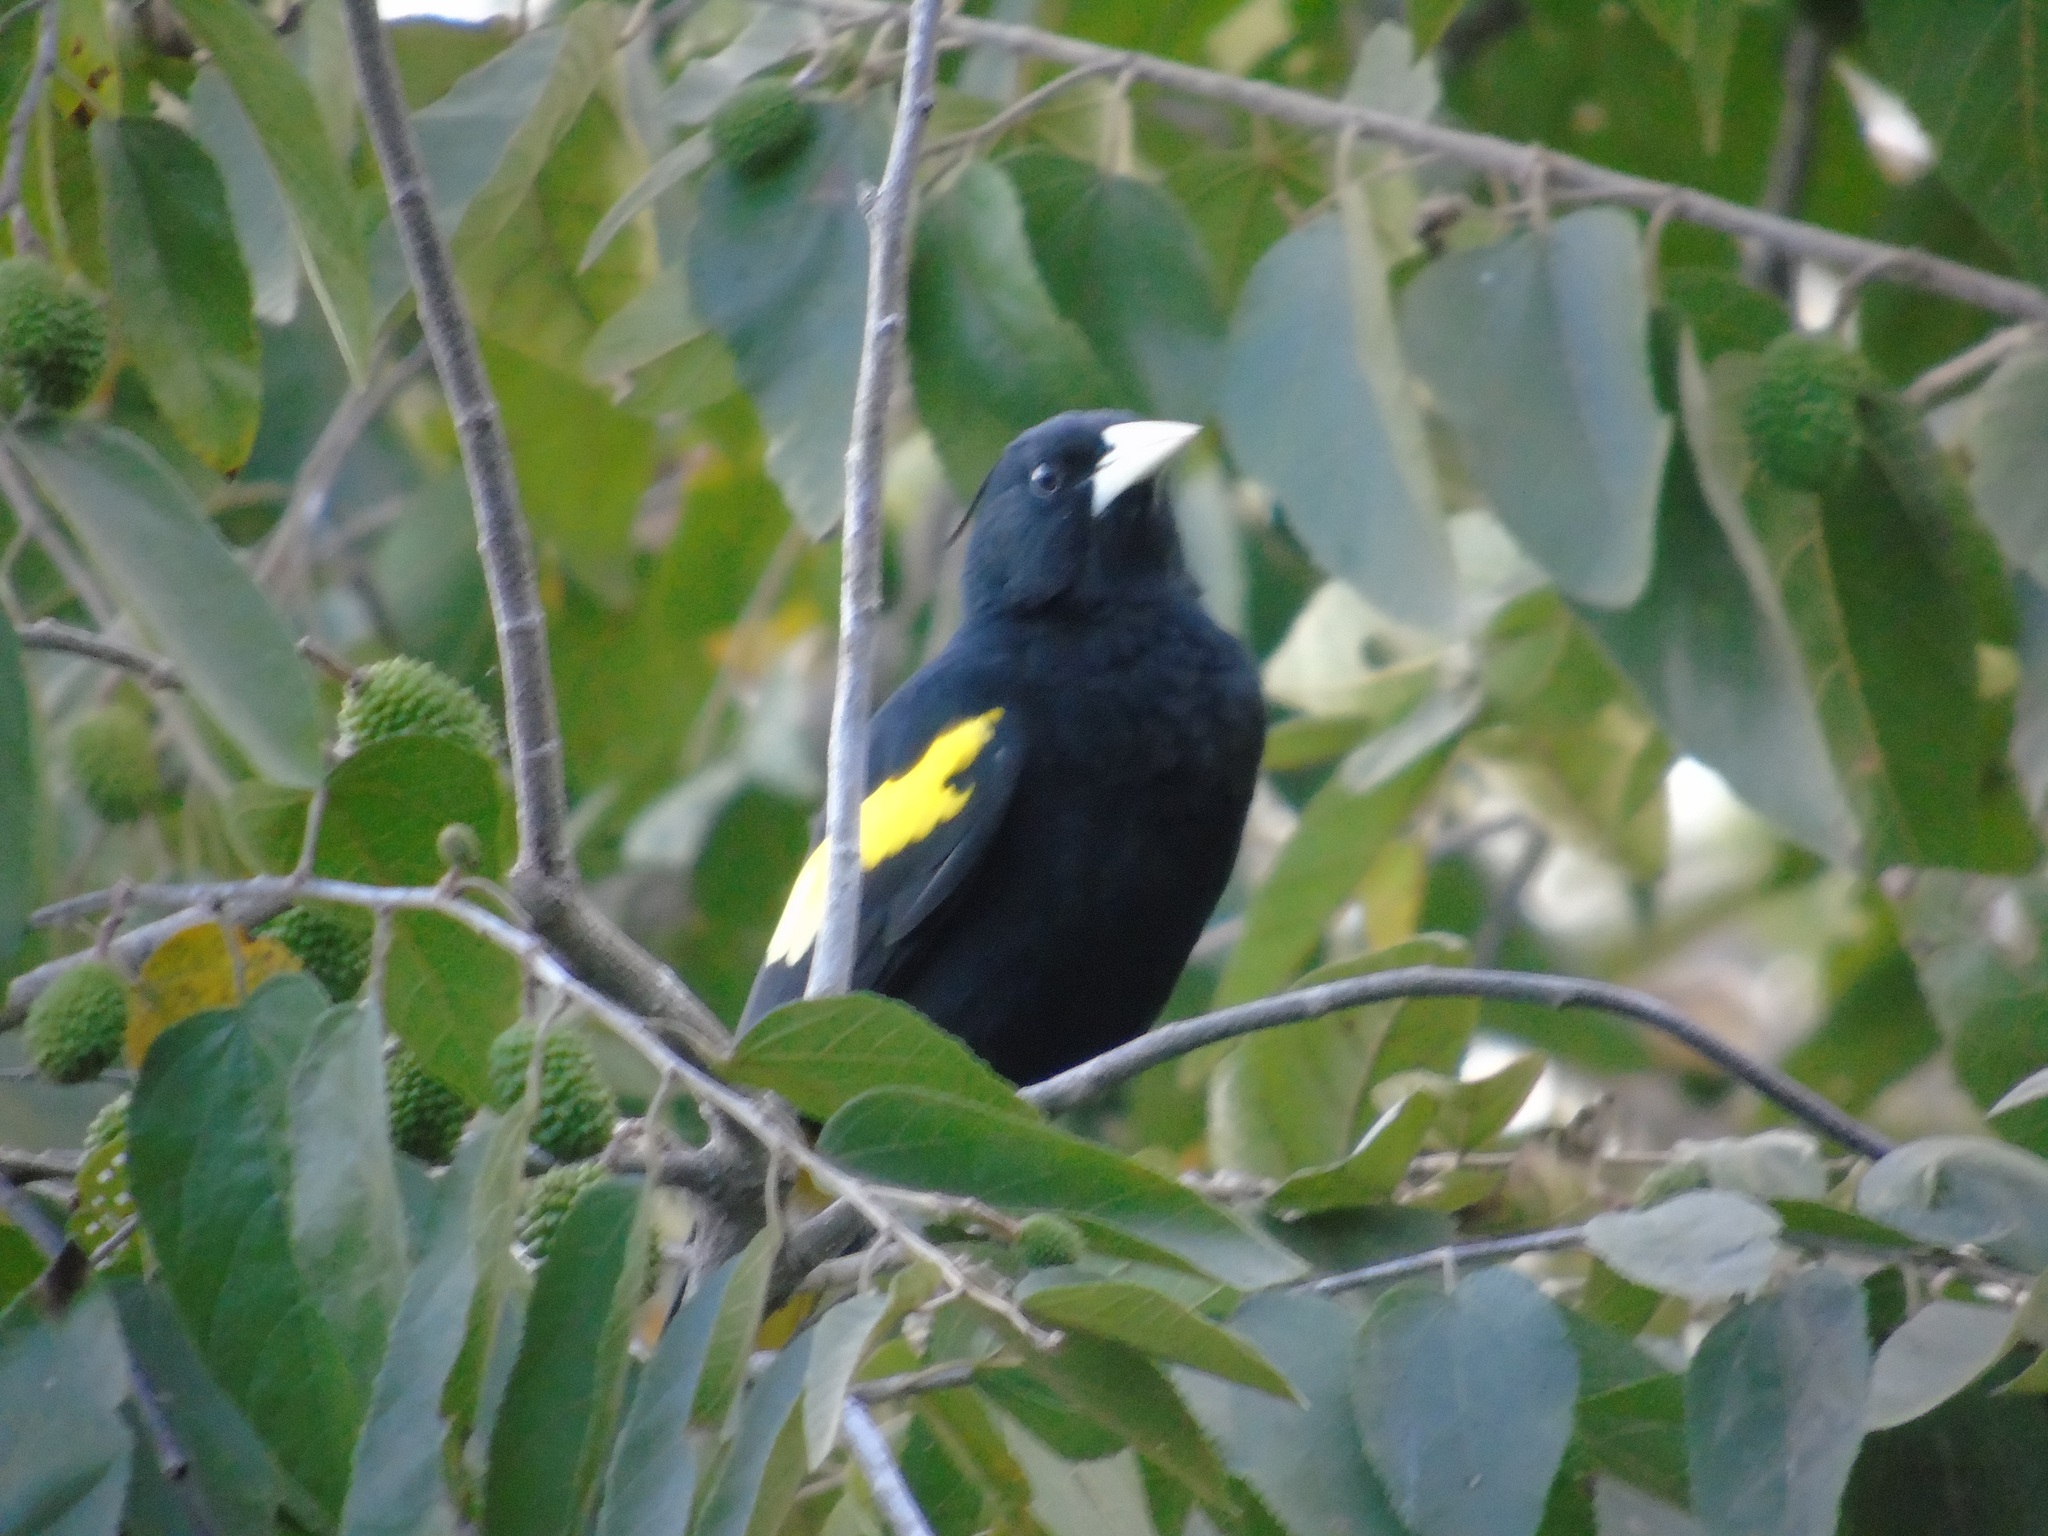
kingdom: Animalia
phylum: Chordata
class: Aves
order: Passeriformes
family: Icteridae
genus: Cacicus
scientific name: Cacicus melanicterus
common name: Yellow-winged cacique
